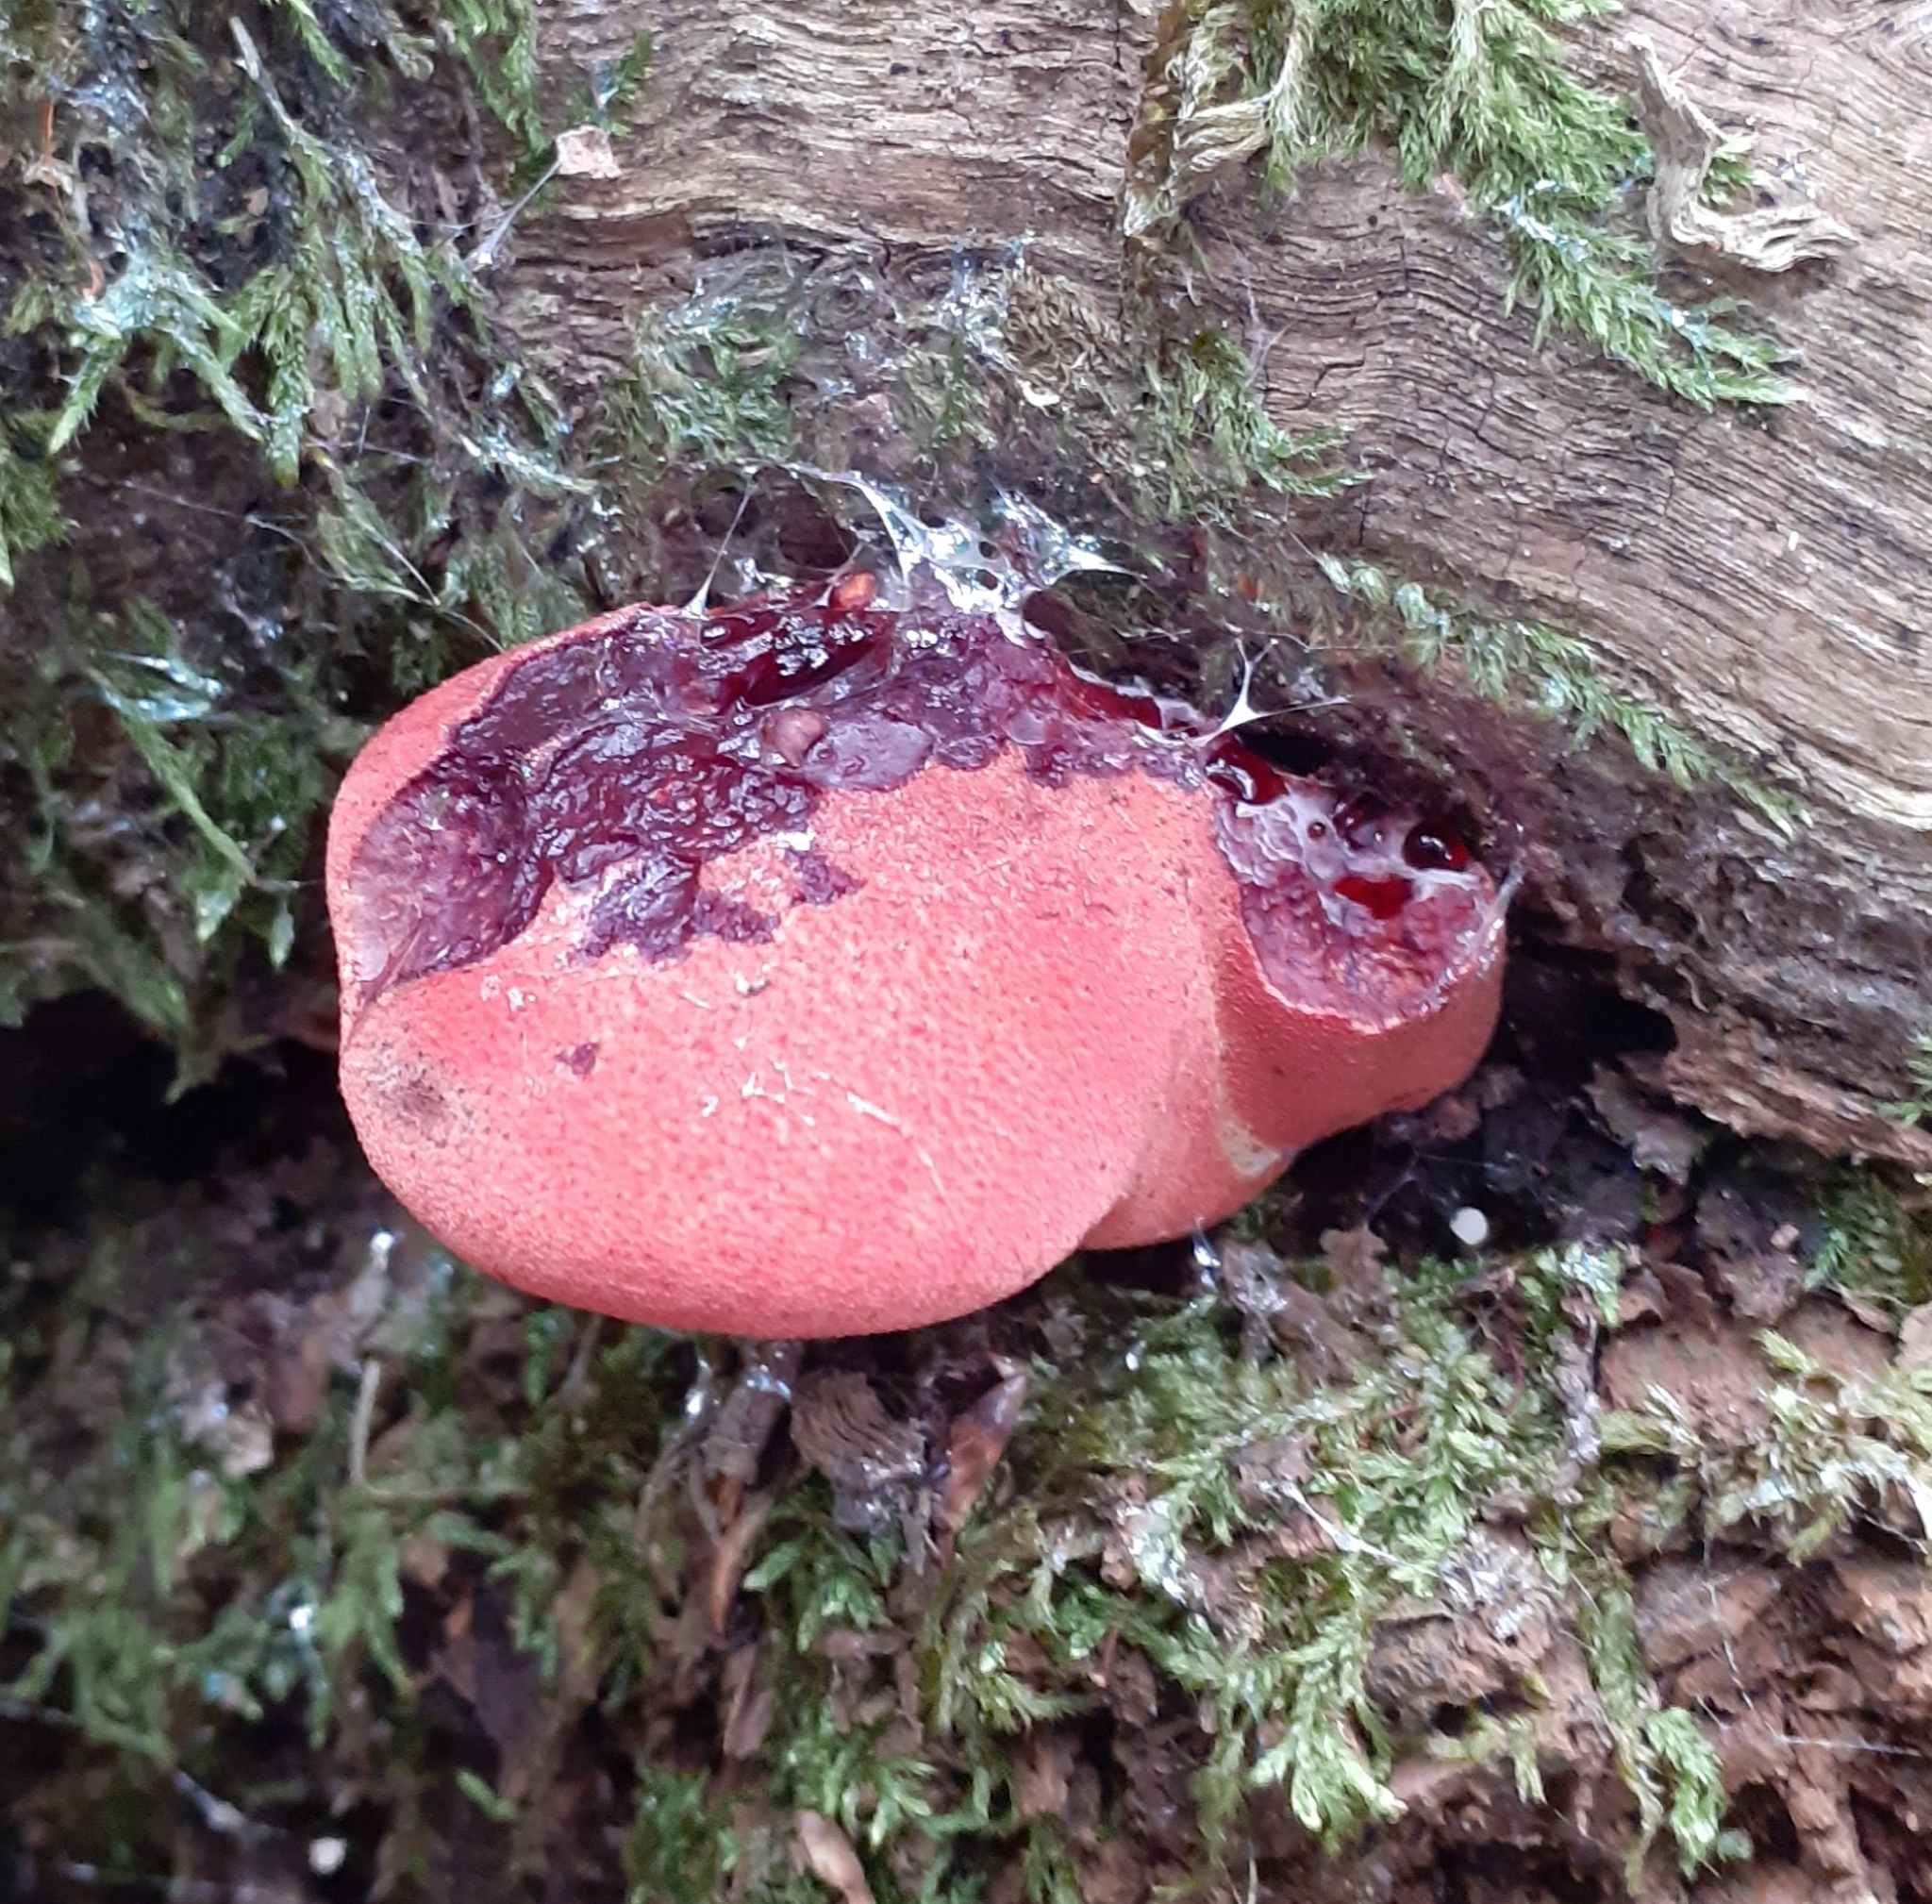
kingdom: Fungi
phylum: Basidiomycota
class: Agaricomycetes
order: Agaricales
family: Fistulinaceae
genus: Fistulina
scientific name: Fistulina hepatica
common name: Beef-steak fungus
